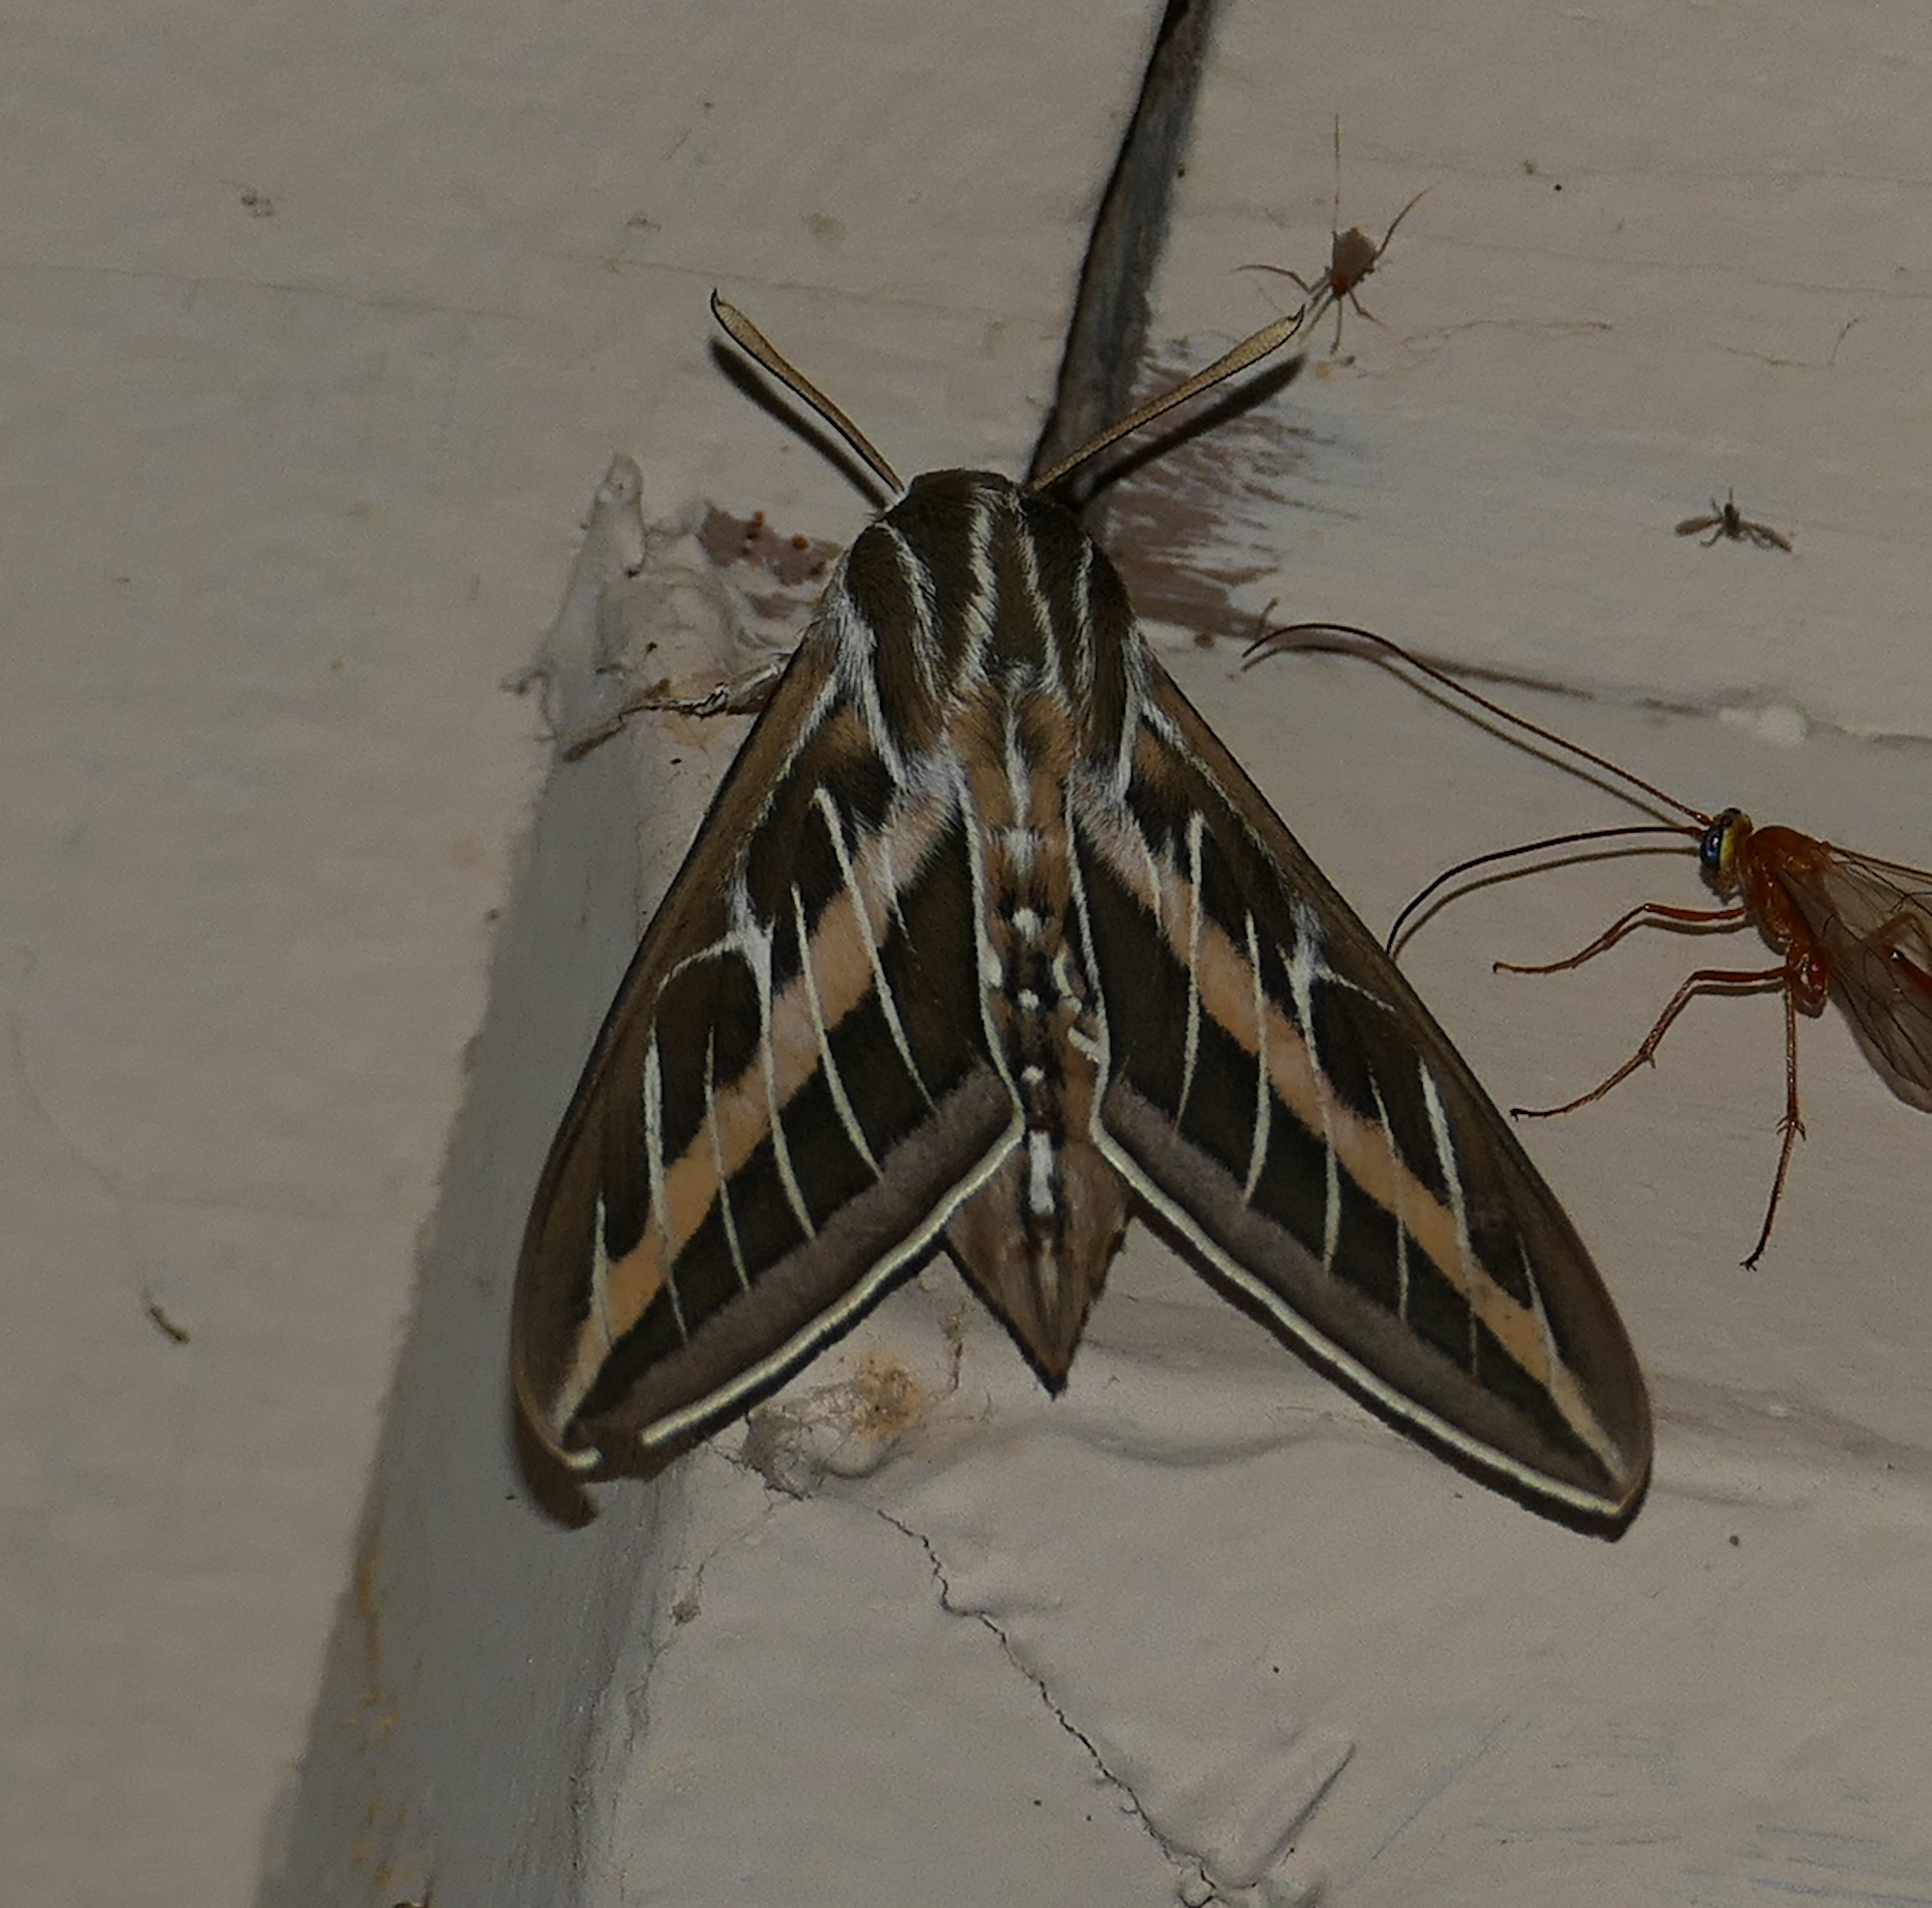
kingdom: Animalia
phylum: Arthropoda
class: Insecta
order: Lepidoptera
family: Sphingidae
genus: Hyles
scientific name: Hyles lineata
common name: White-lined sphinx
